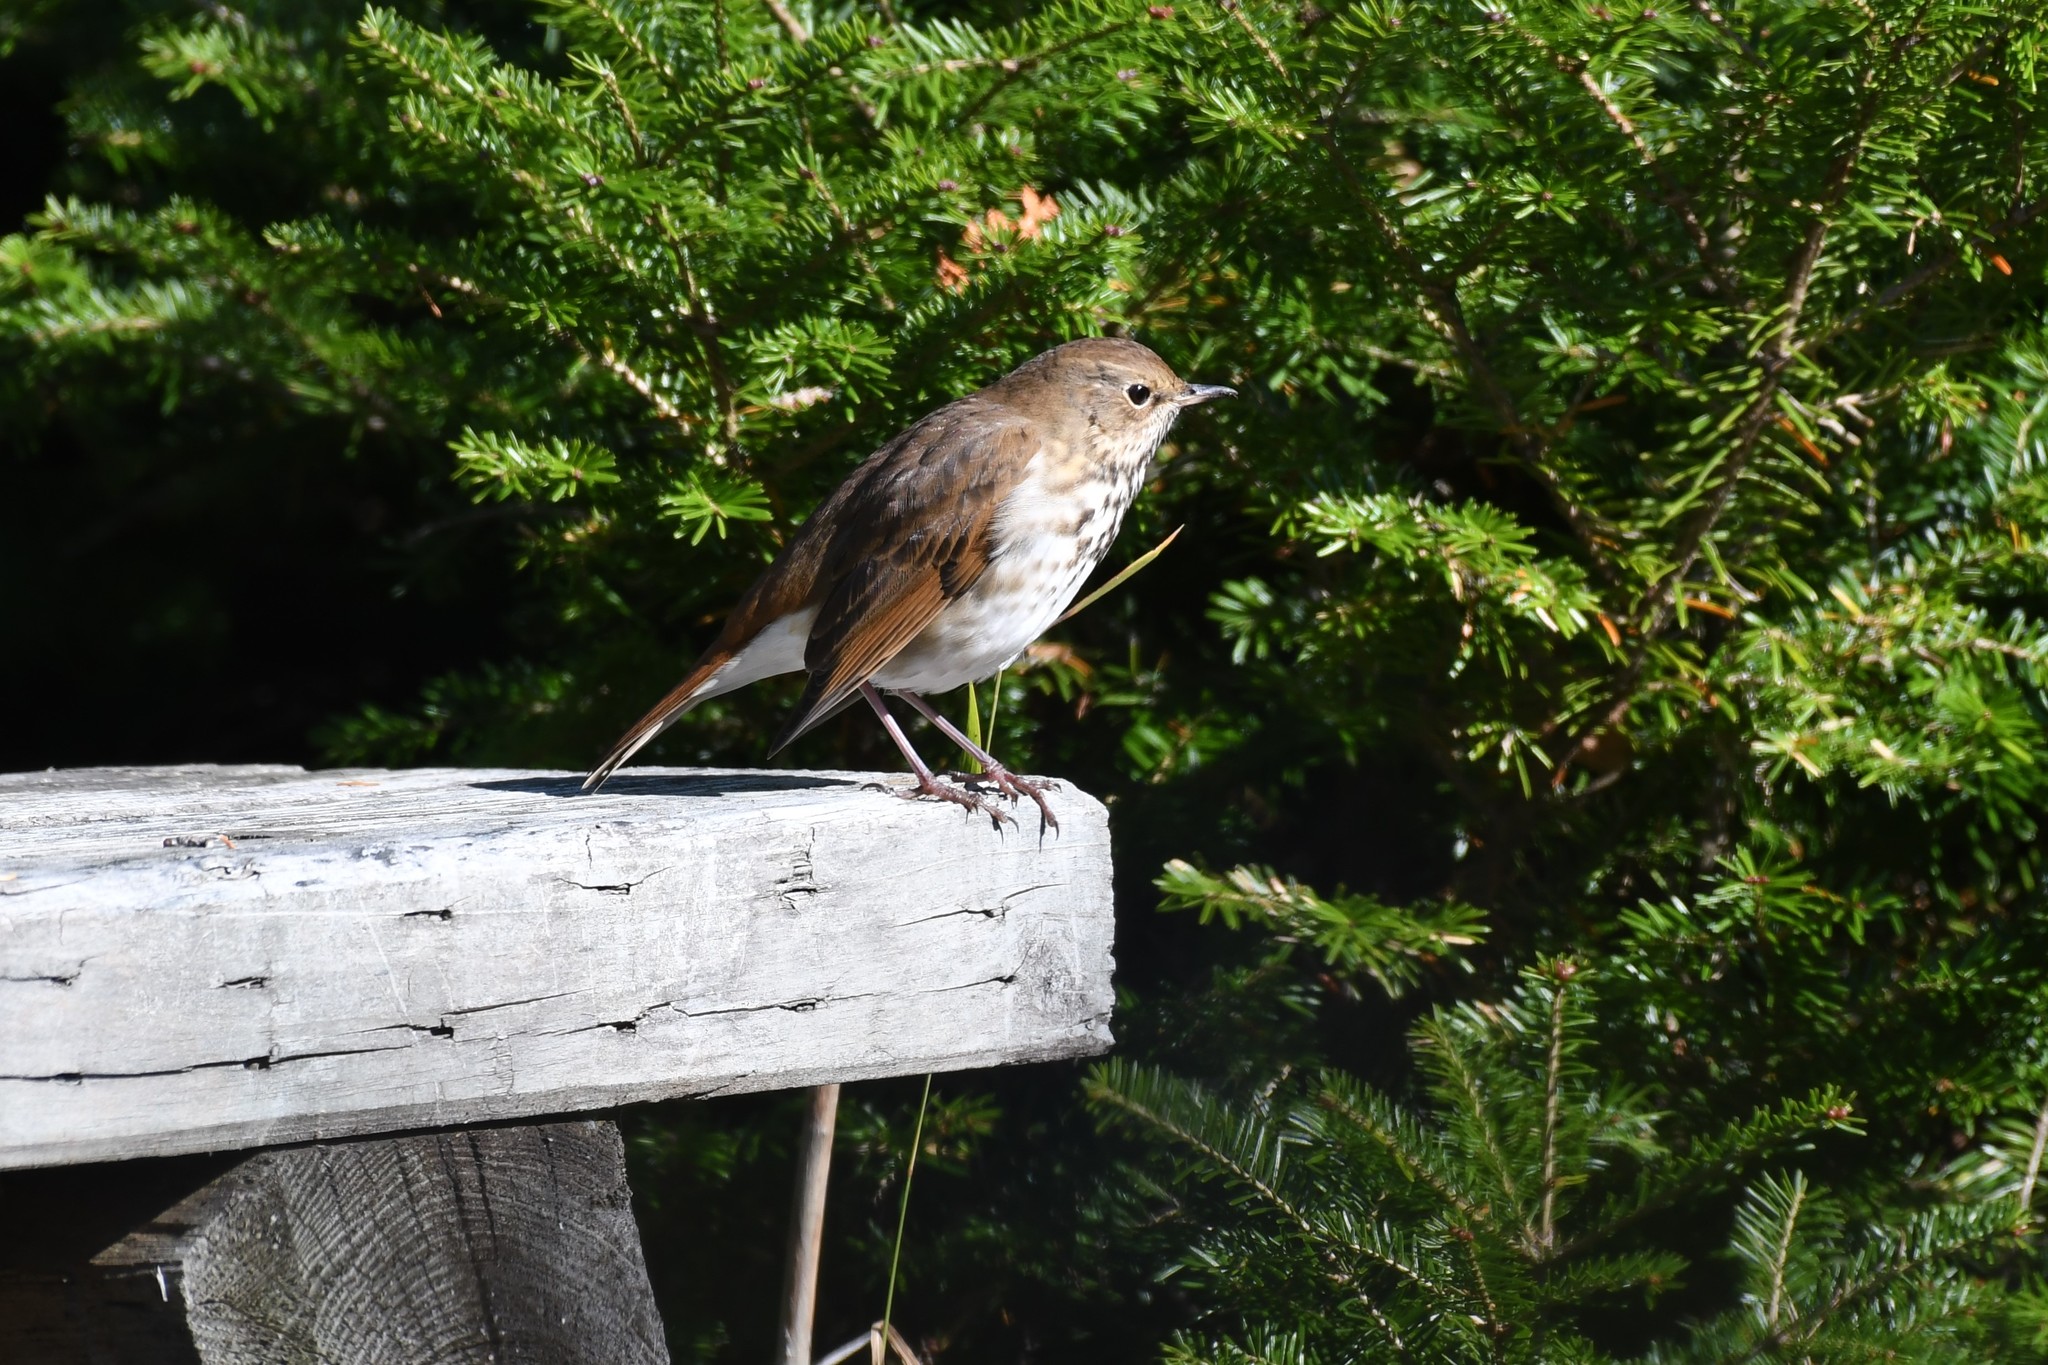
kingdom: Animalia
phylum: Chordata
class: Aves
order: Passeriformes
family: Turdidae
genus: Catharus
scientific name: Catharus guttatus
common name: Hermit thrush
